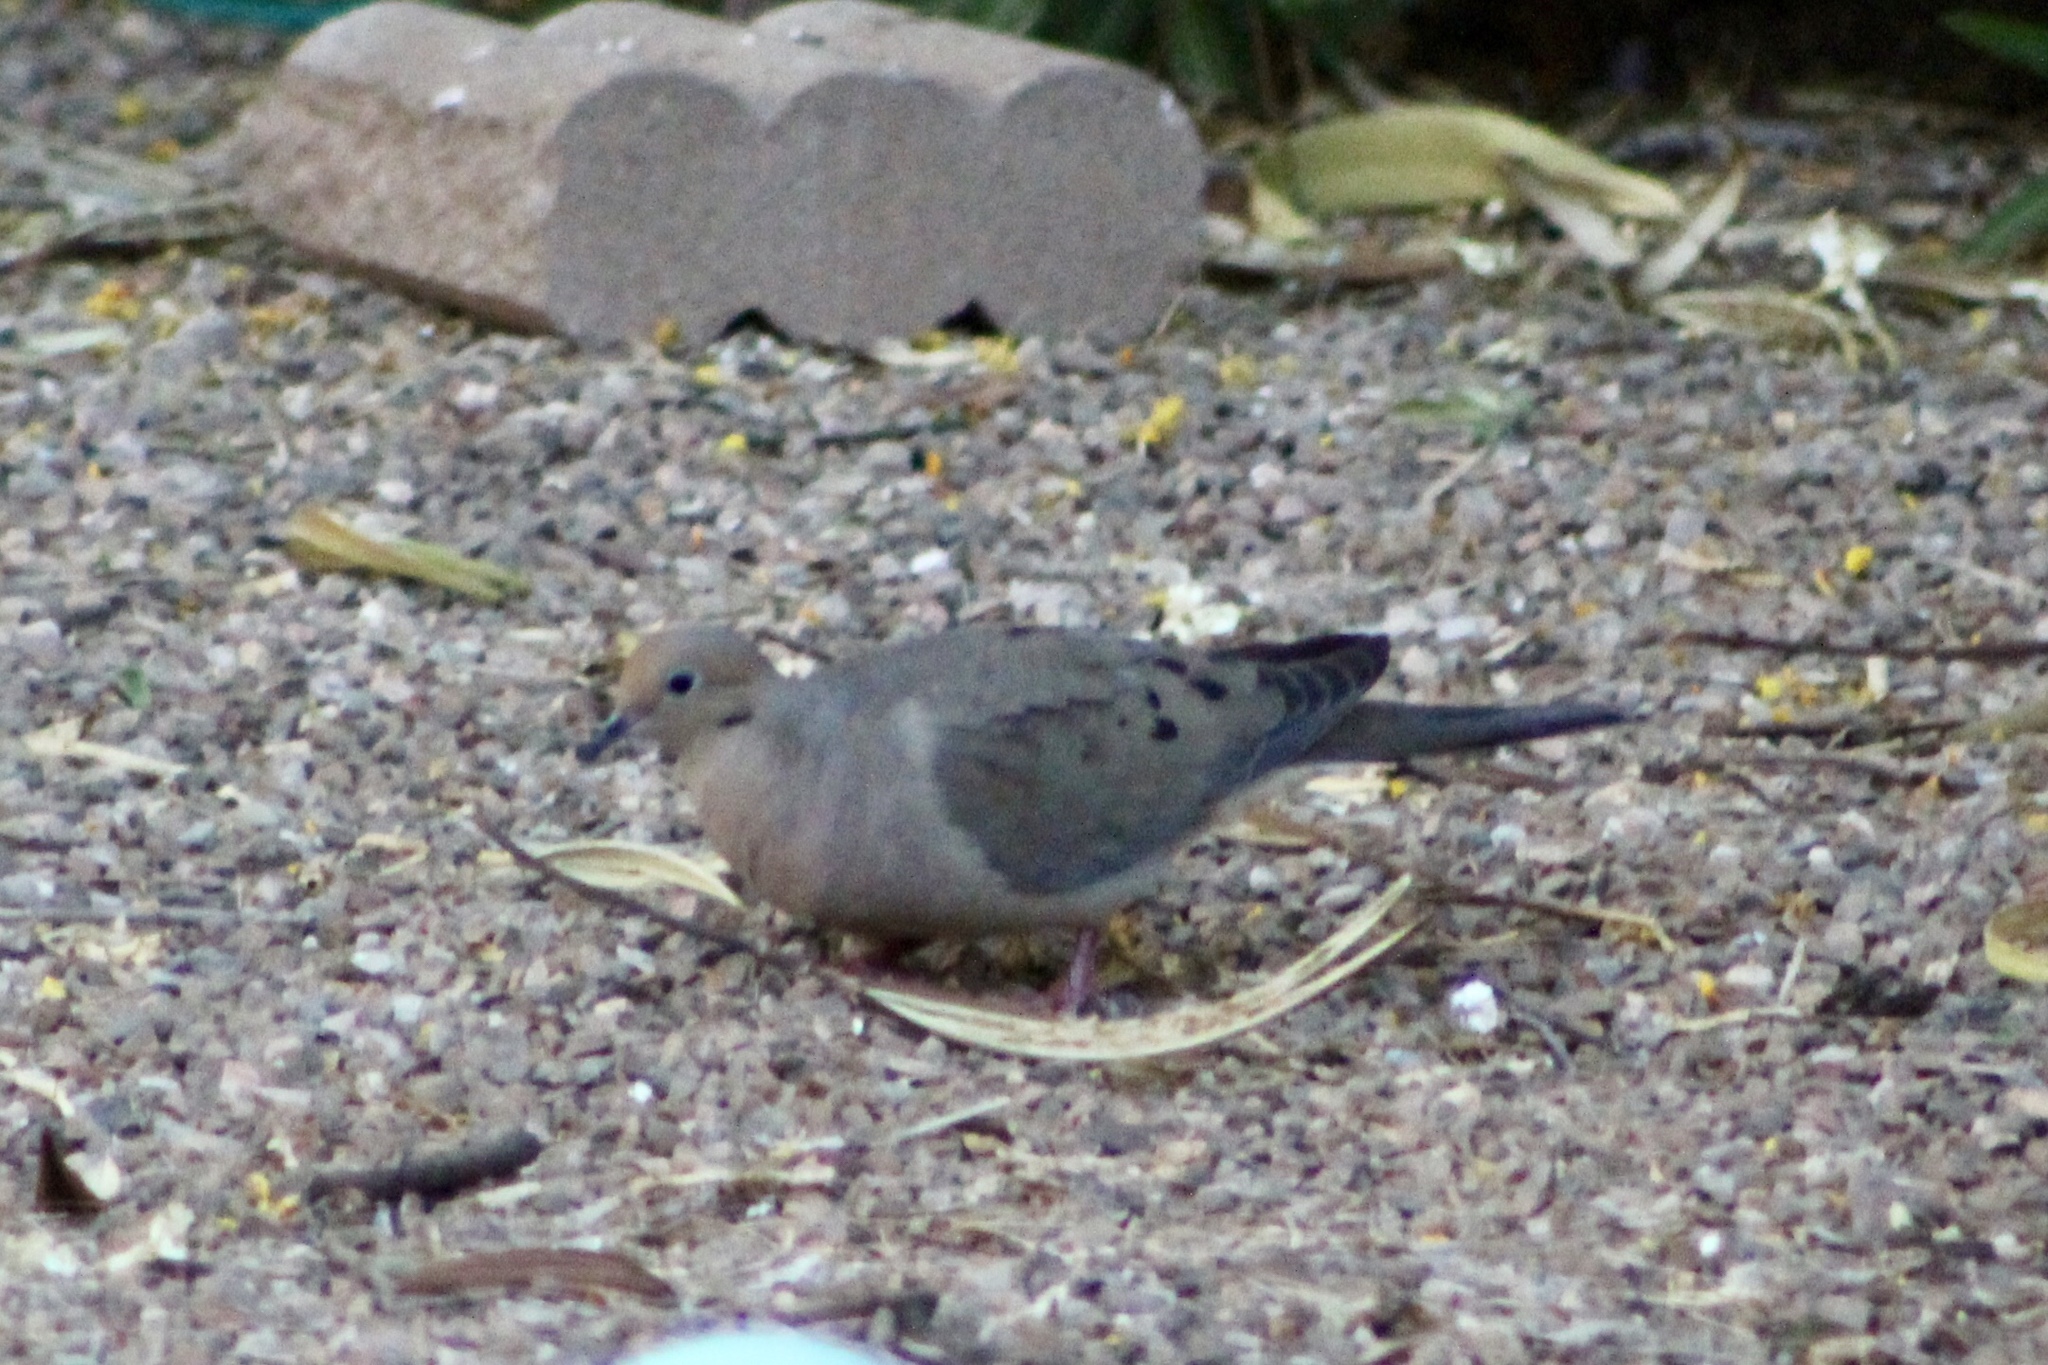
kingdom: Animalia
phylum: Chordata
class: Aves
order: Columbiformes
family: Columbidae
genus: Zenaida
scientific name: Zenaida macroura
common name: Mourning dove
